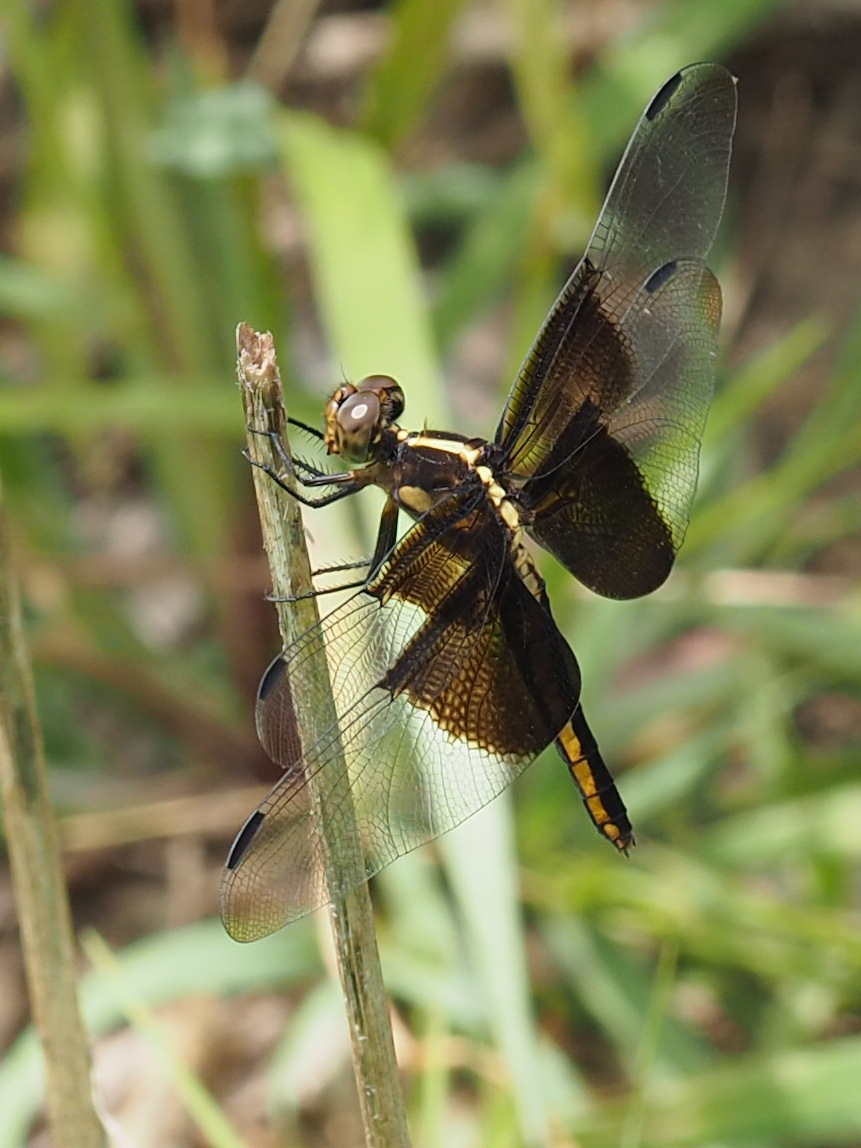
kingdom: Animalia
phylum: Arthropoda
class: Insecta
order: Odonata
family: Libellulidae
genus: Libellula
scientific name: Libellula luctuosa
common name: Widow skimmer
